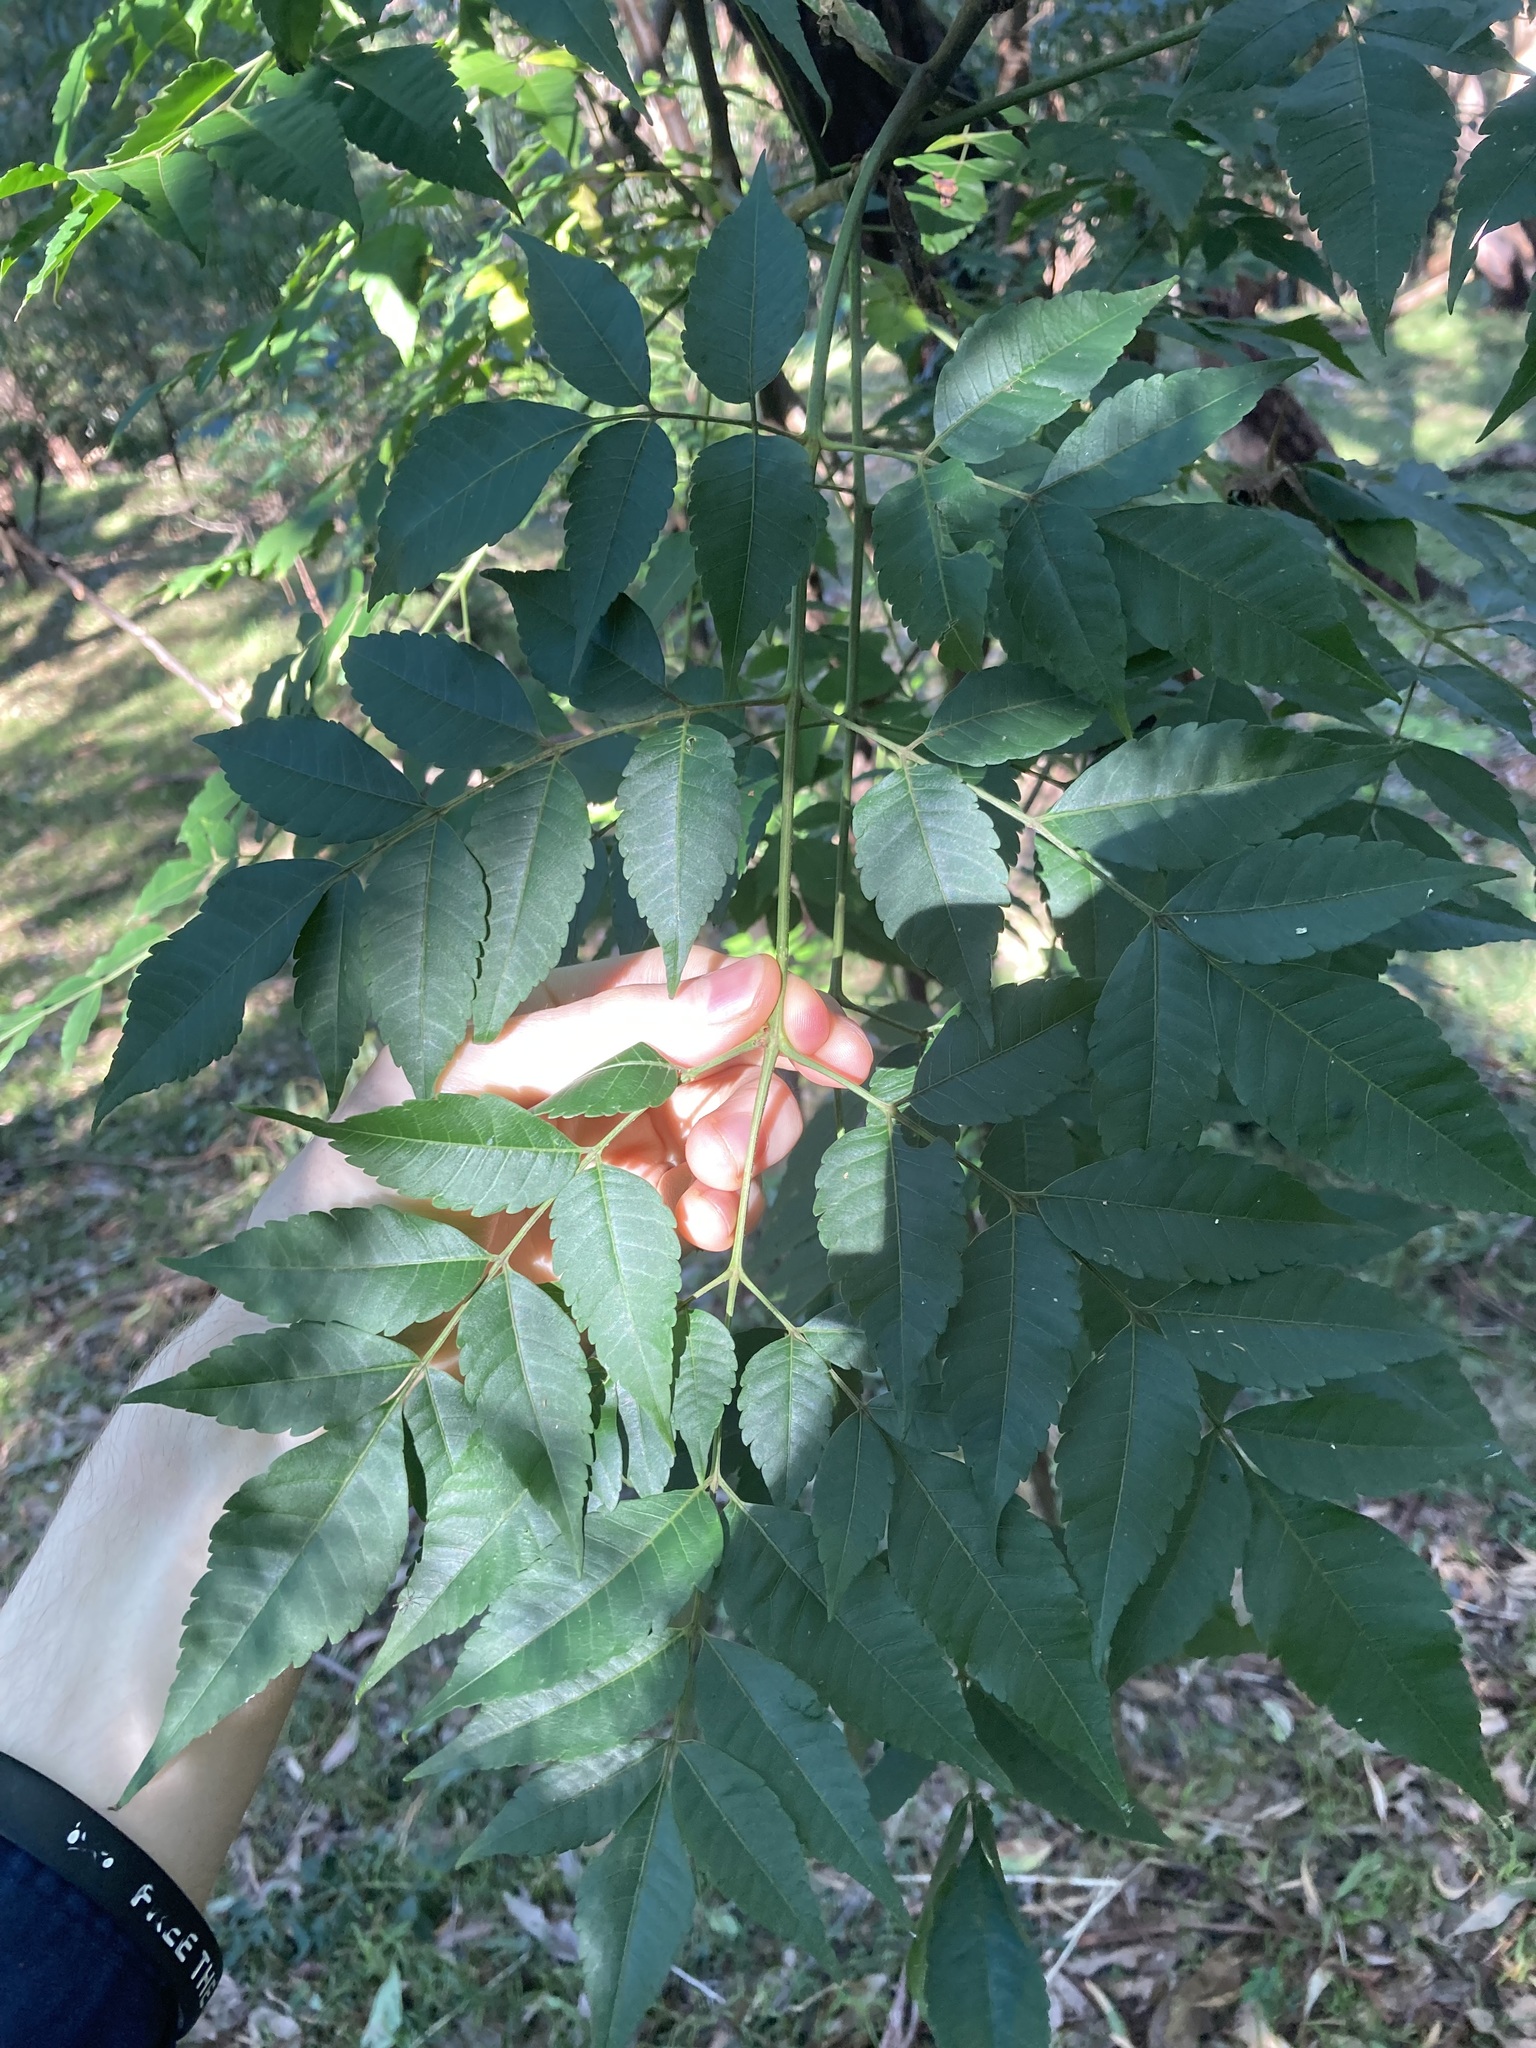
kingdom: Plantae
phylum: Tracheophyta
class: Magnoliopsida
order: Sapindales
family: Meliaceae
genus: Melia
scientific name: Melia azedarach
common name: Chinaberrytree
